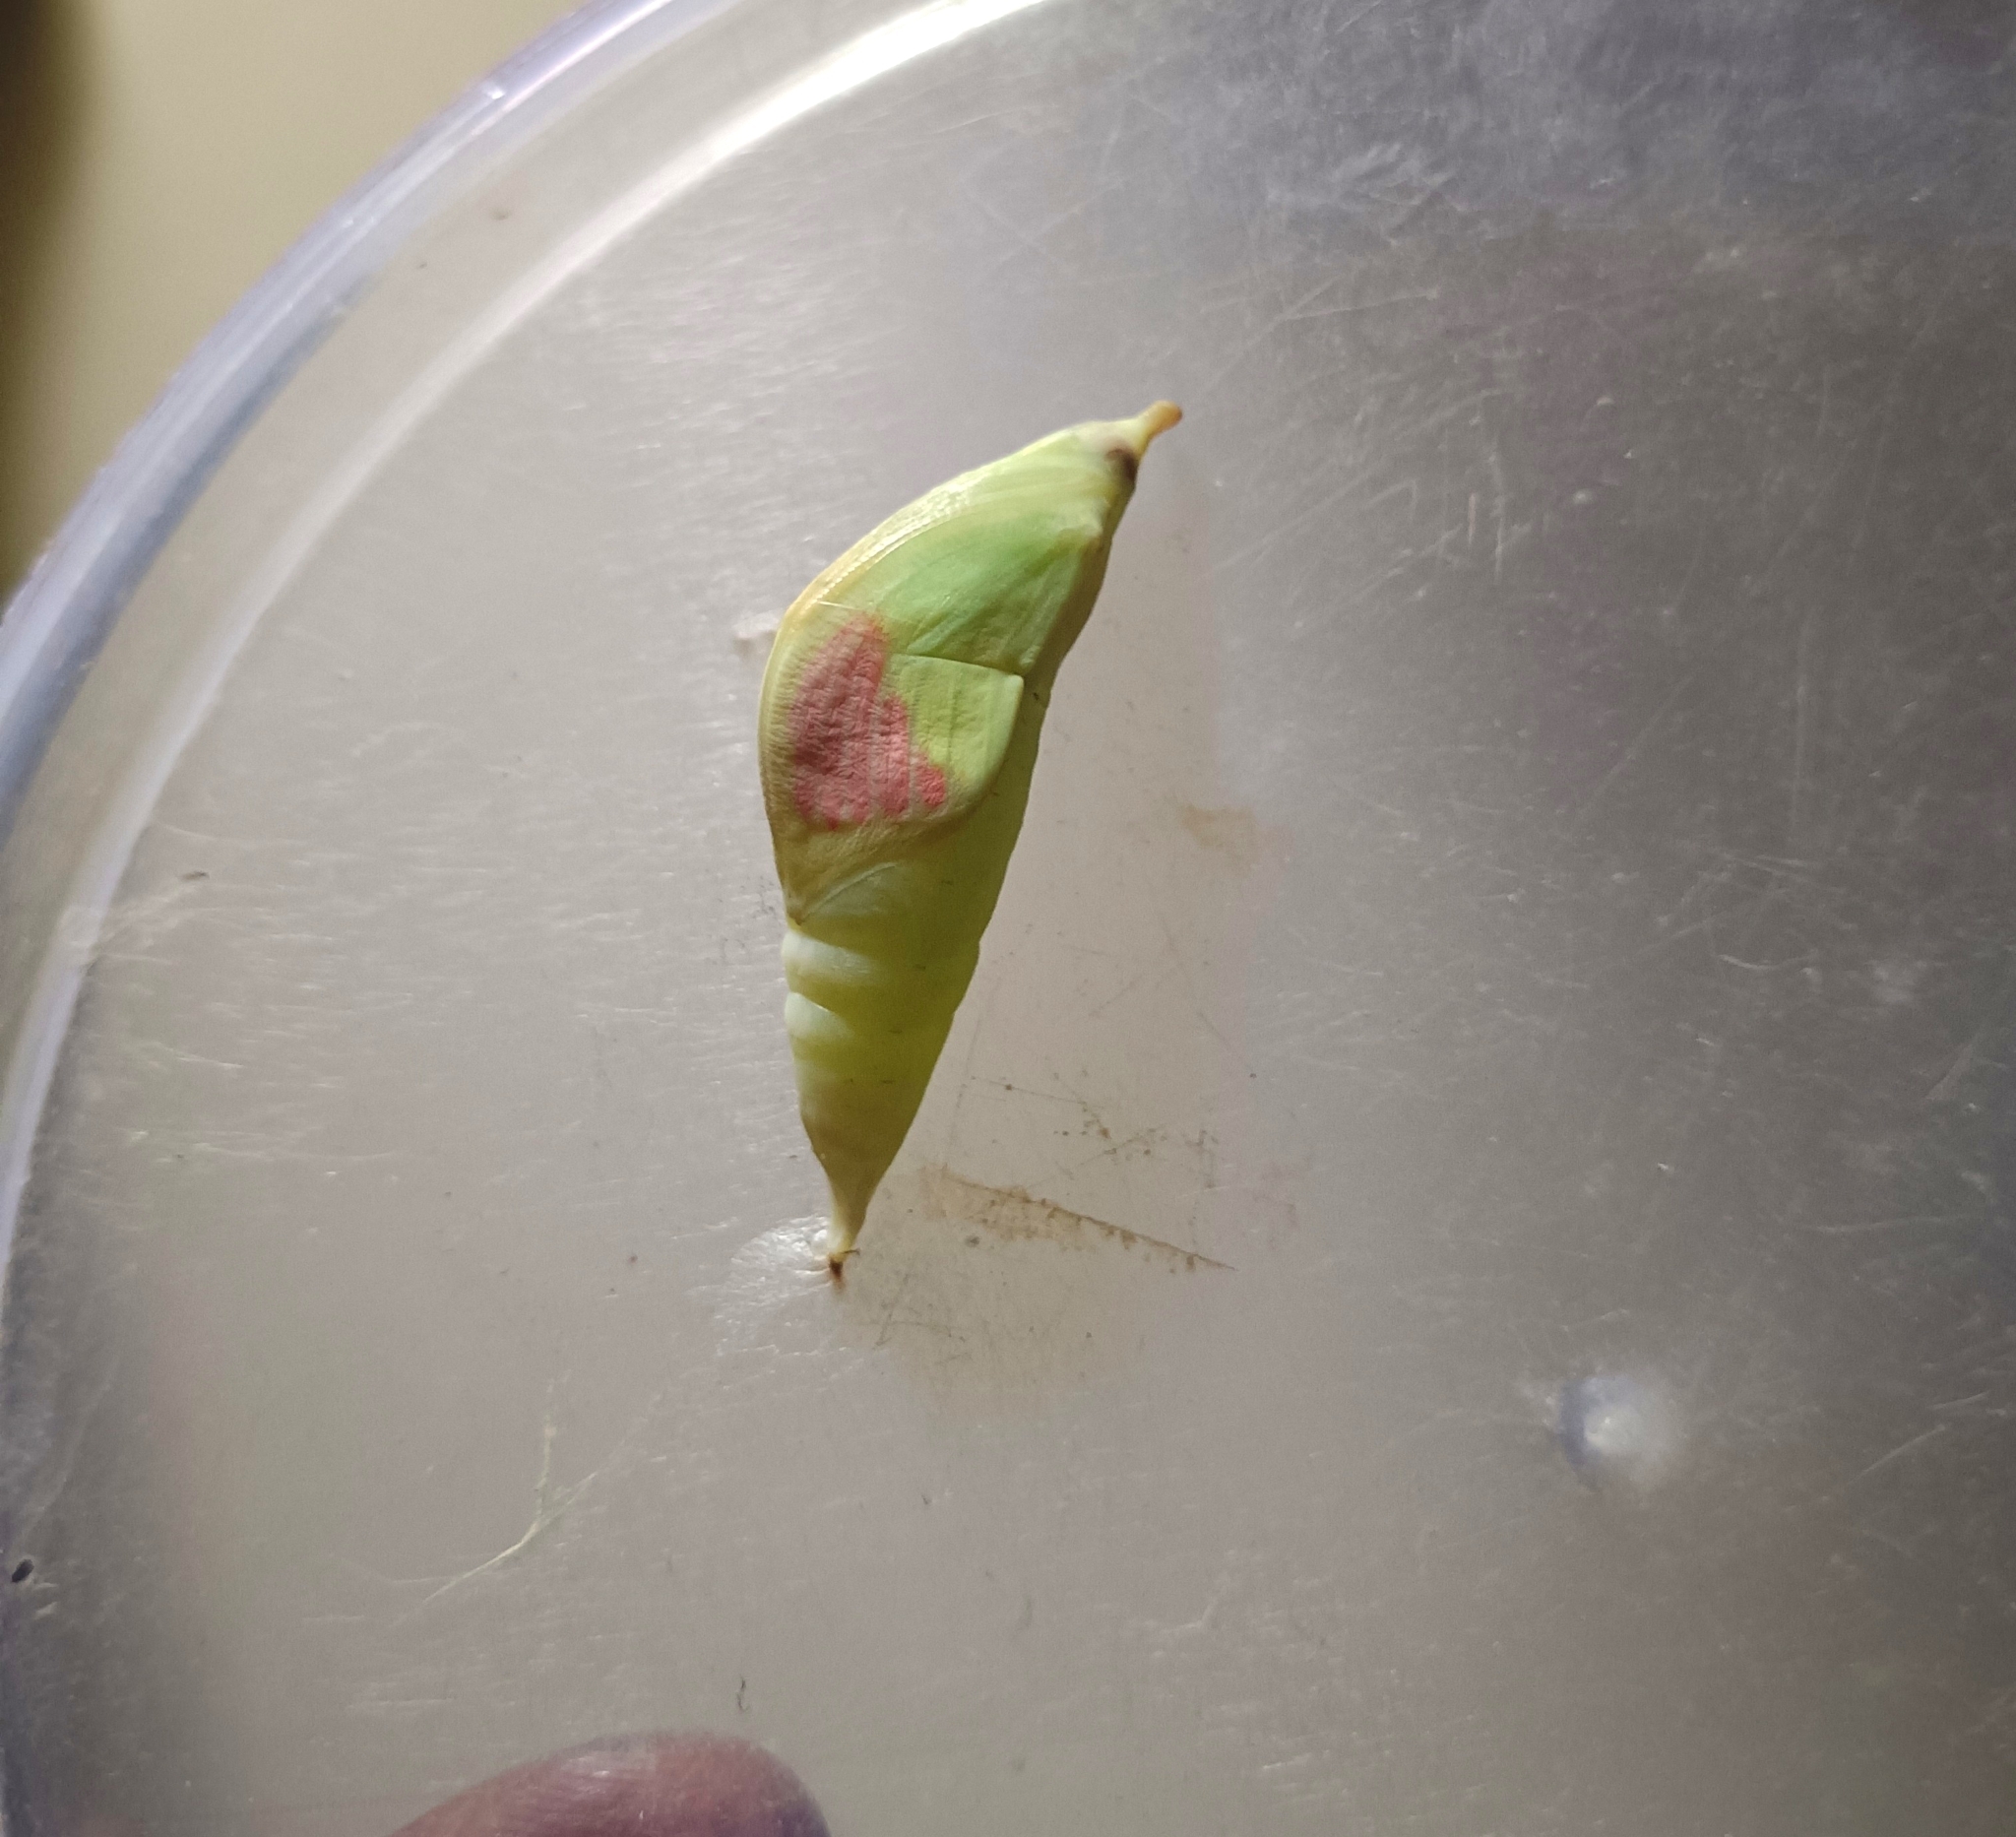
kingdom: Animalia
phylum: Arthropoda
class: Insecta
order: Lepidoptera
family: Pieridae
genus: Hebomoia
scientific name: Hebomoia glaucippe
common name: Great orange tip
